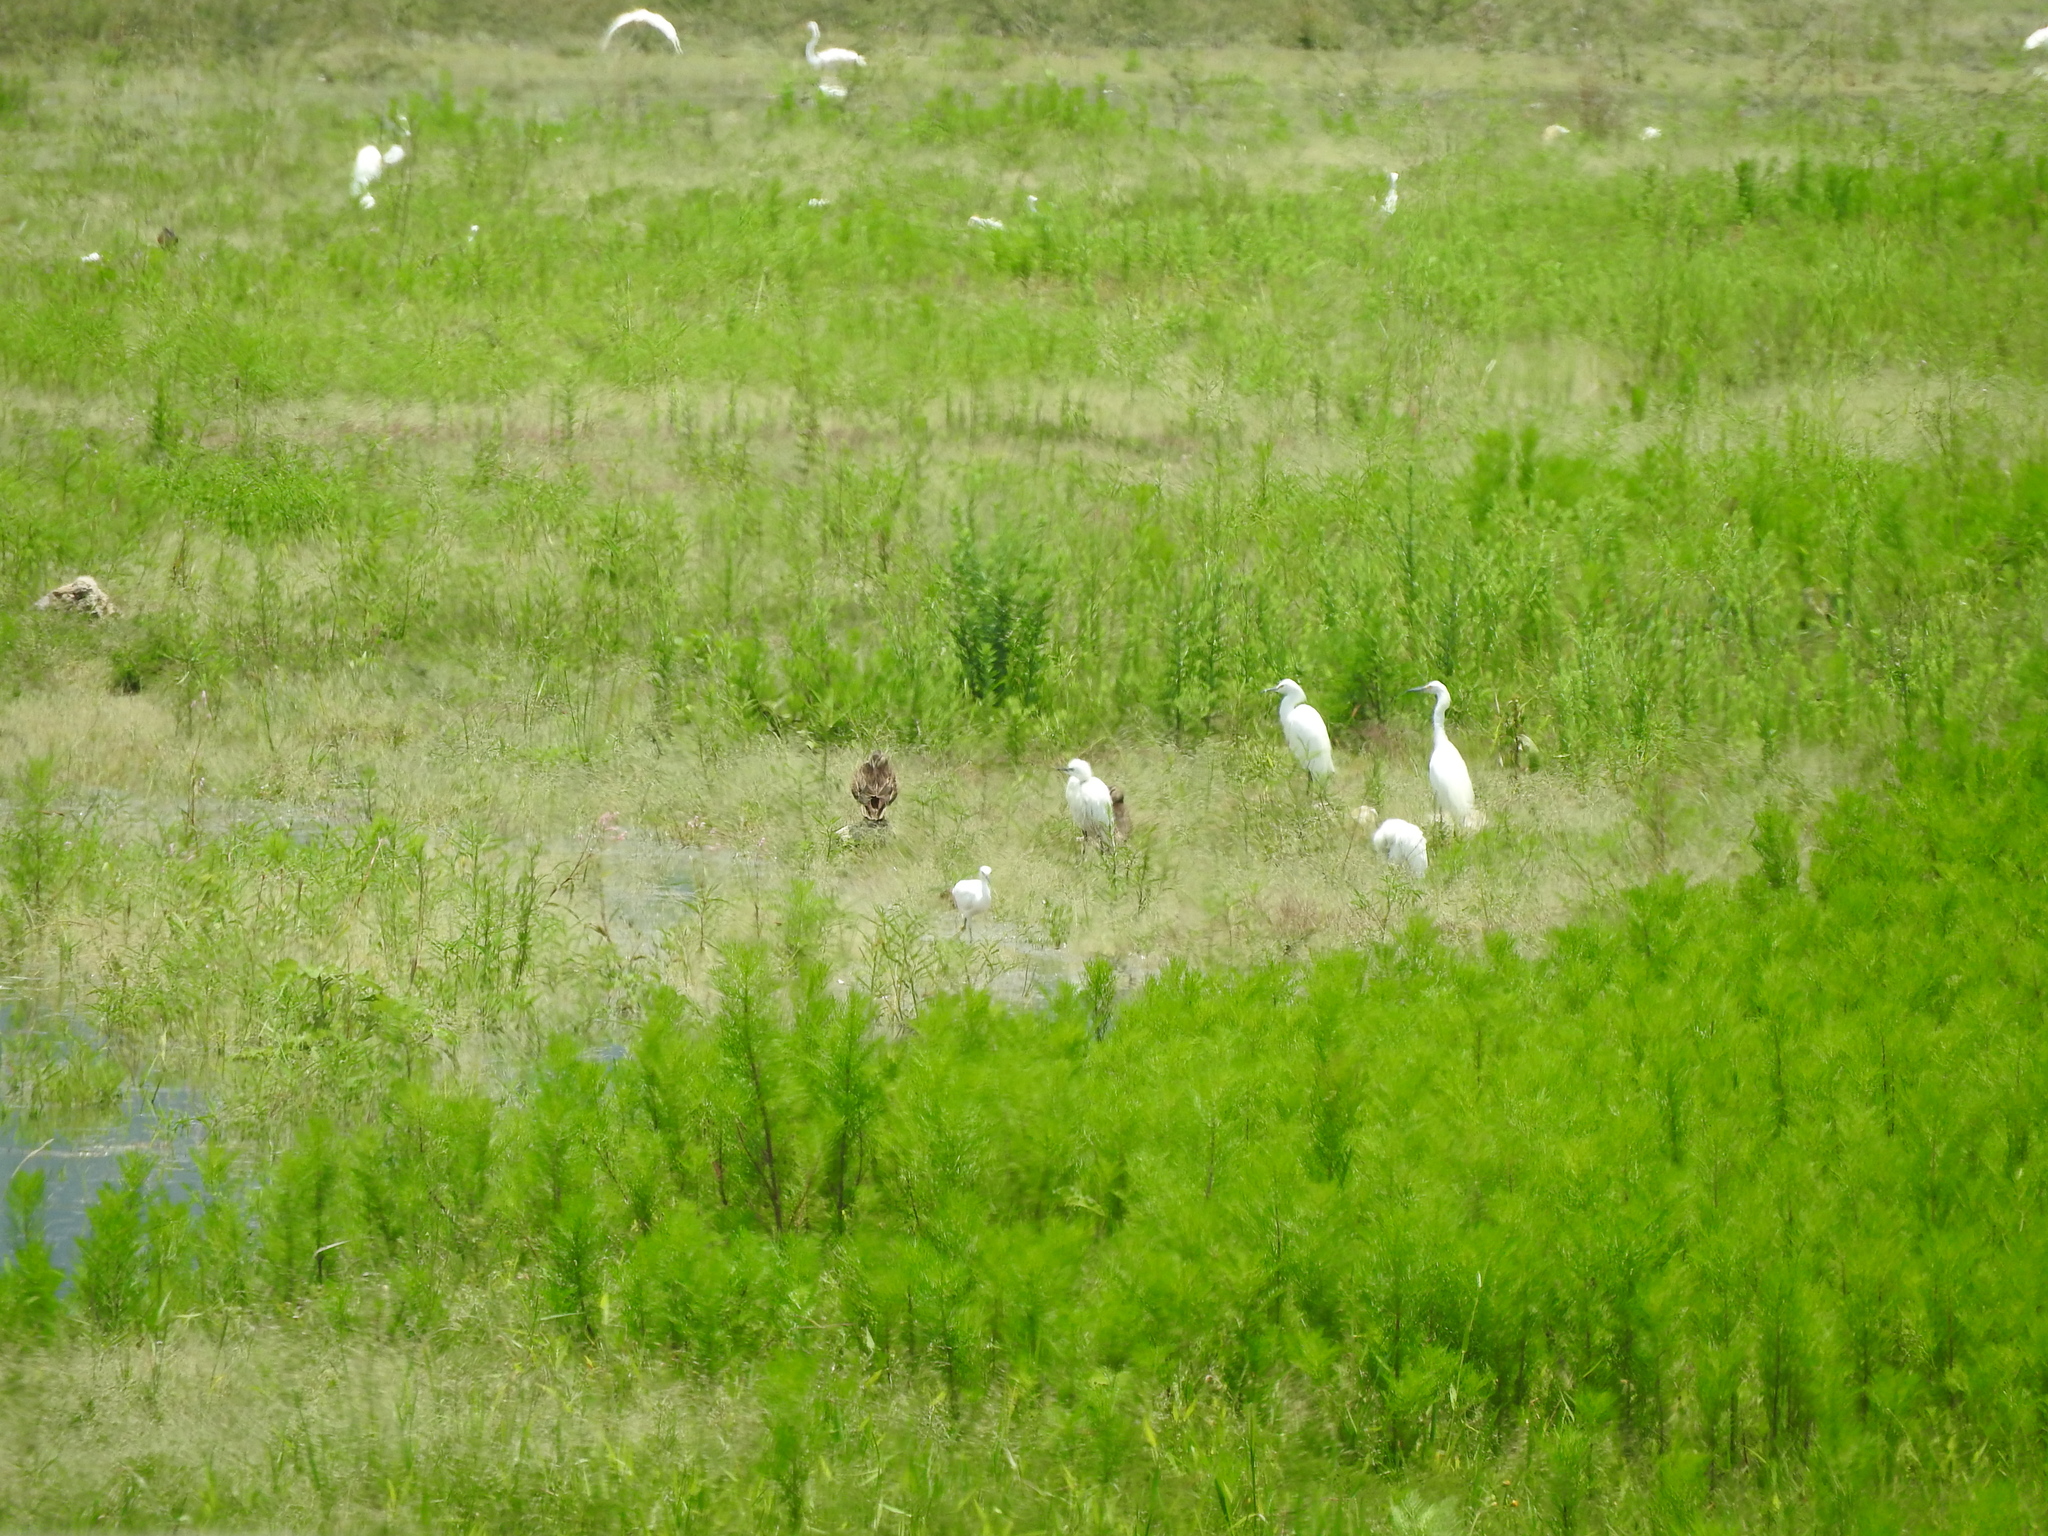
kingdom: Animalia
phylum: Chordata
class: Aves
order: Pelecaniformes
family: Ardeidae
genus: Bubulcus
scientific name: Bubulcus ibis
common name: Cattle egret
